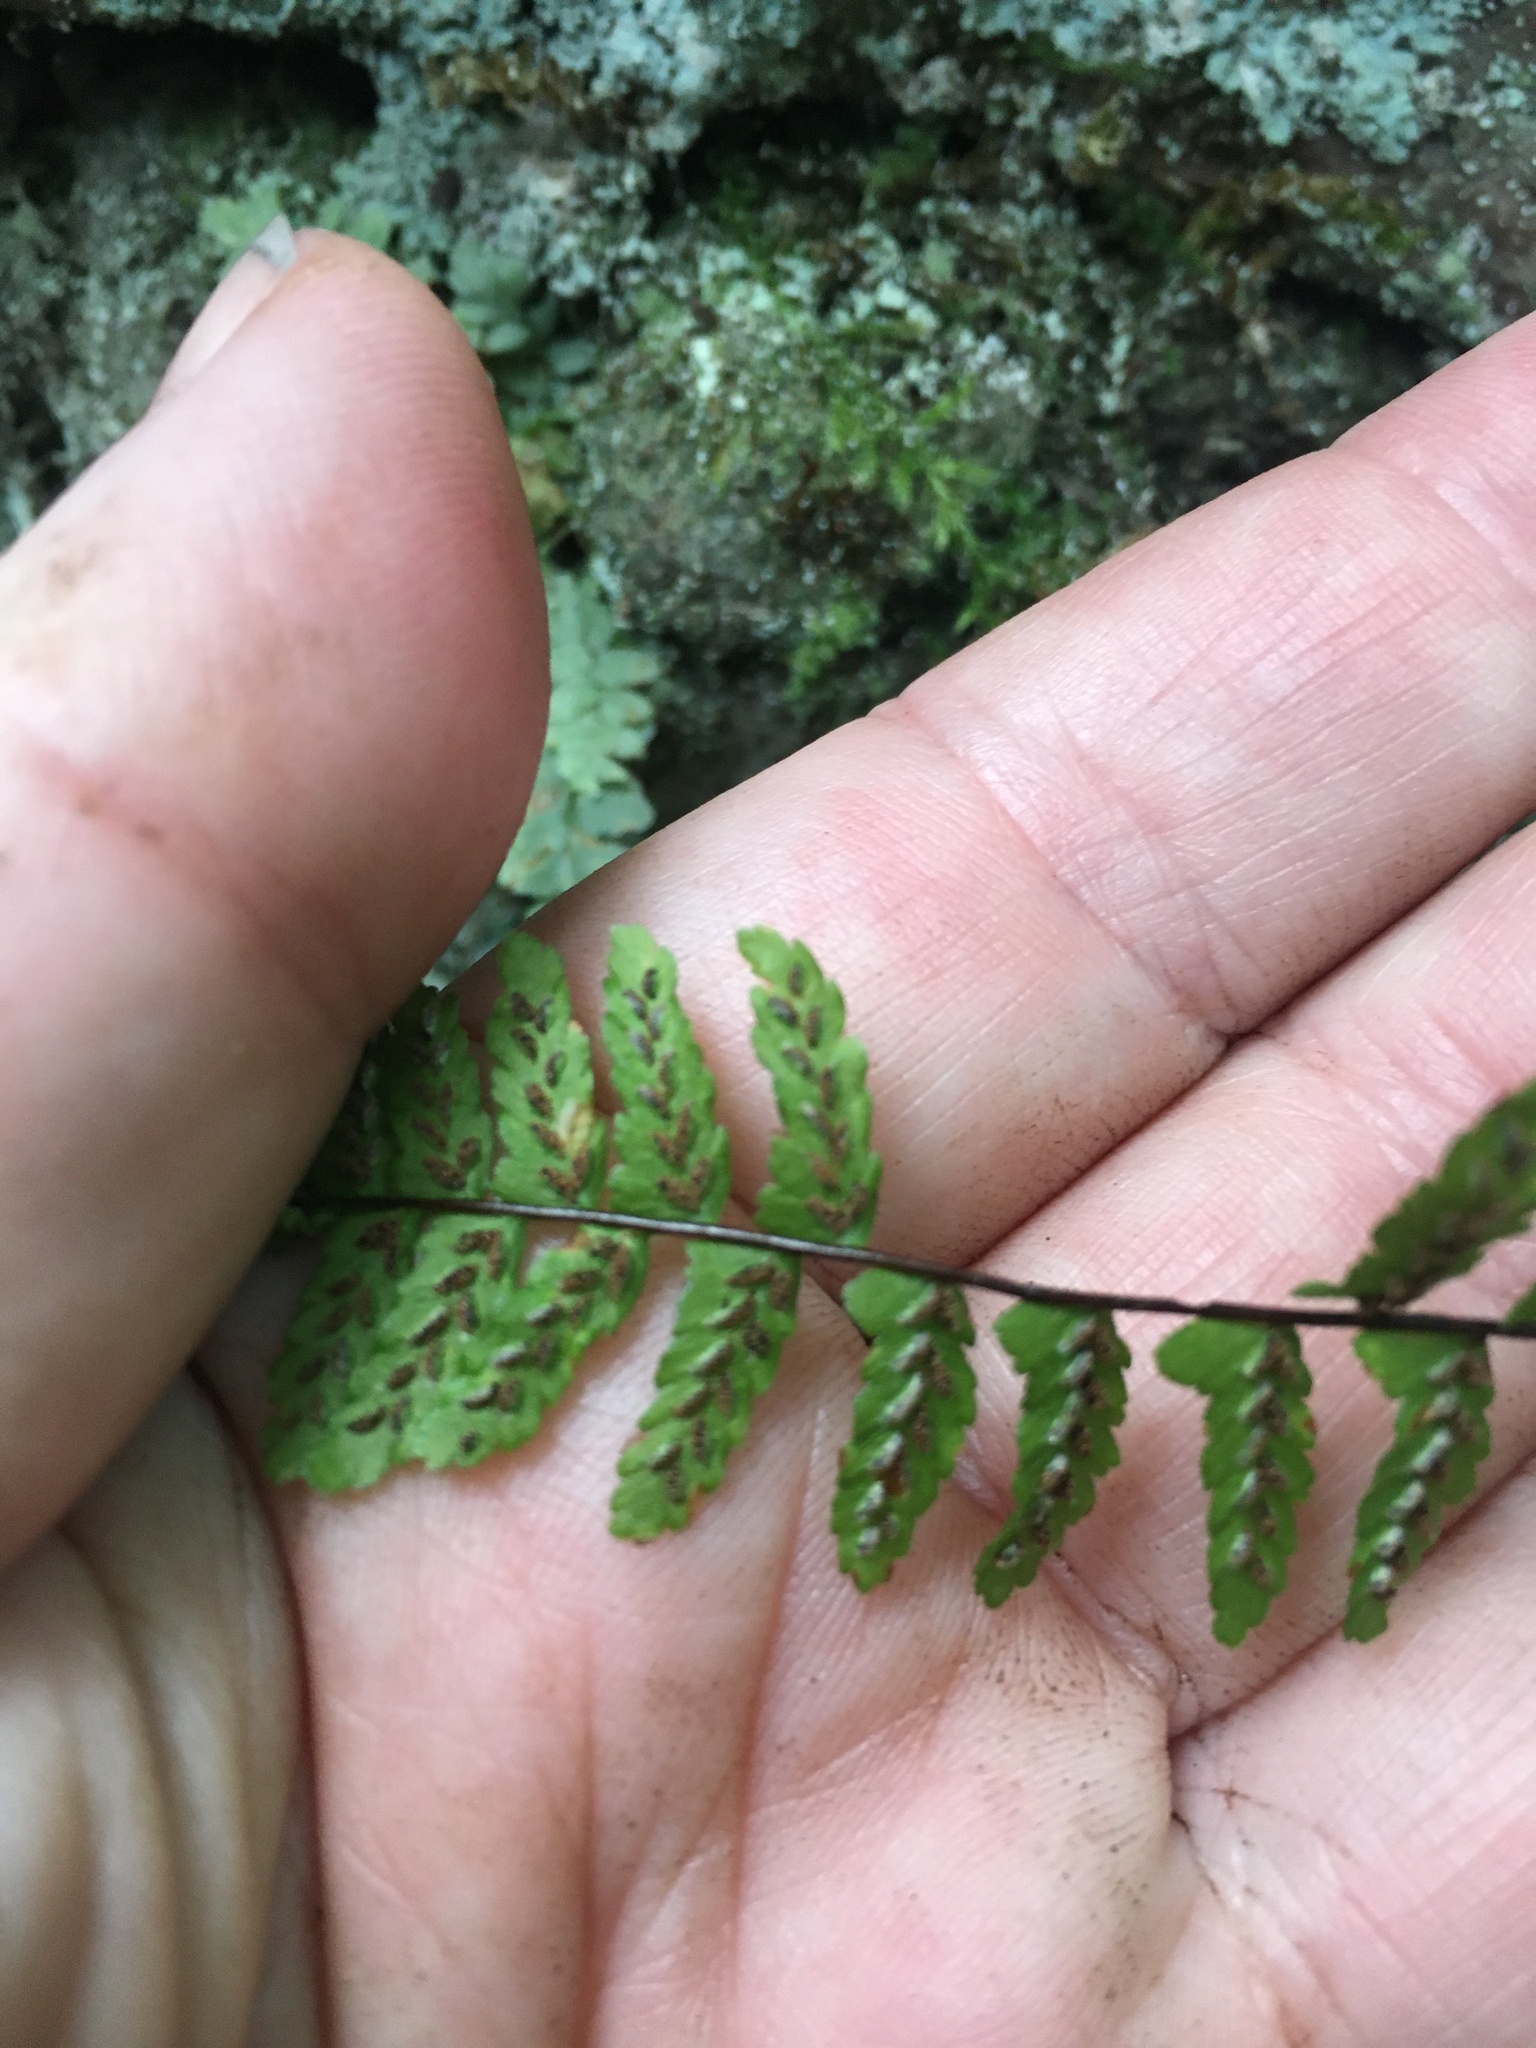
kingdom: Plantae
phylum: Tracheophyta
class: Polypodiopsida
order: Polypodiales
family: Aspleniaceae
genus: Asplenium
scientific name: Asplenium platyneuron
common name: Ebony spleenwort
